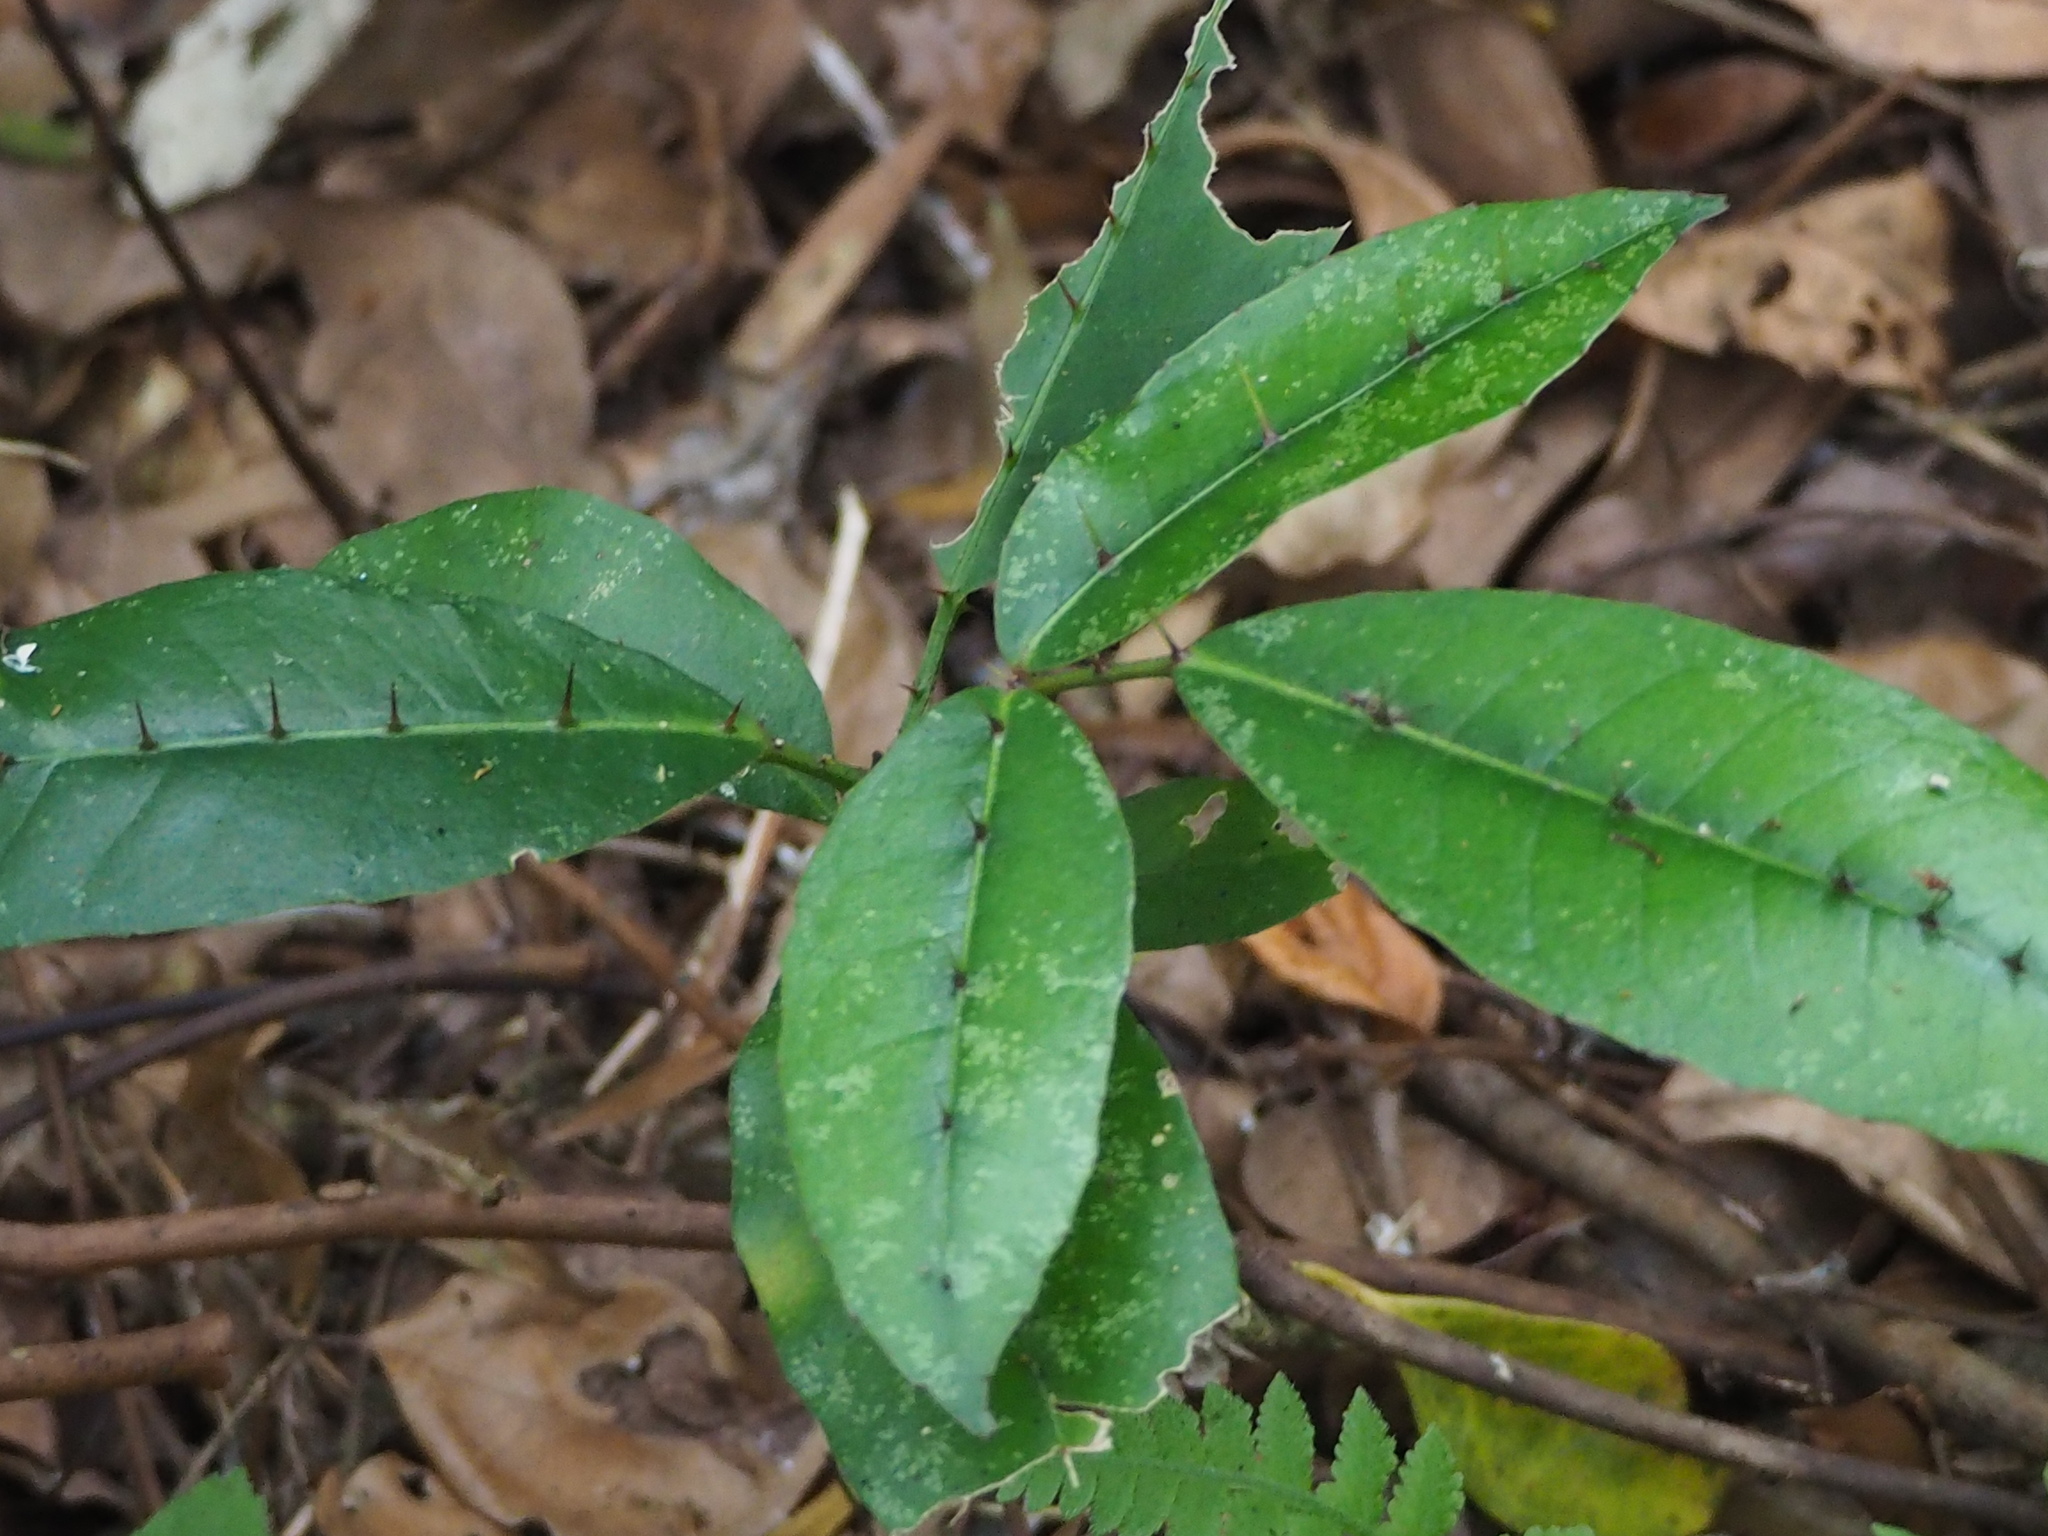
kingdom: Plantae
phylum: Tracheophyta
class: Magnoliopsida
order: Sapindales
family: Rutaceae
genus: Zanthoxylum
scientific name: Zanthoxylum nitidum
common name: Shiny-leaf prickly-ash
